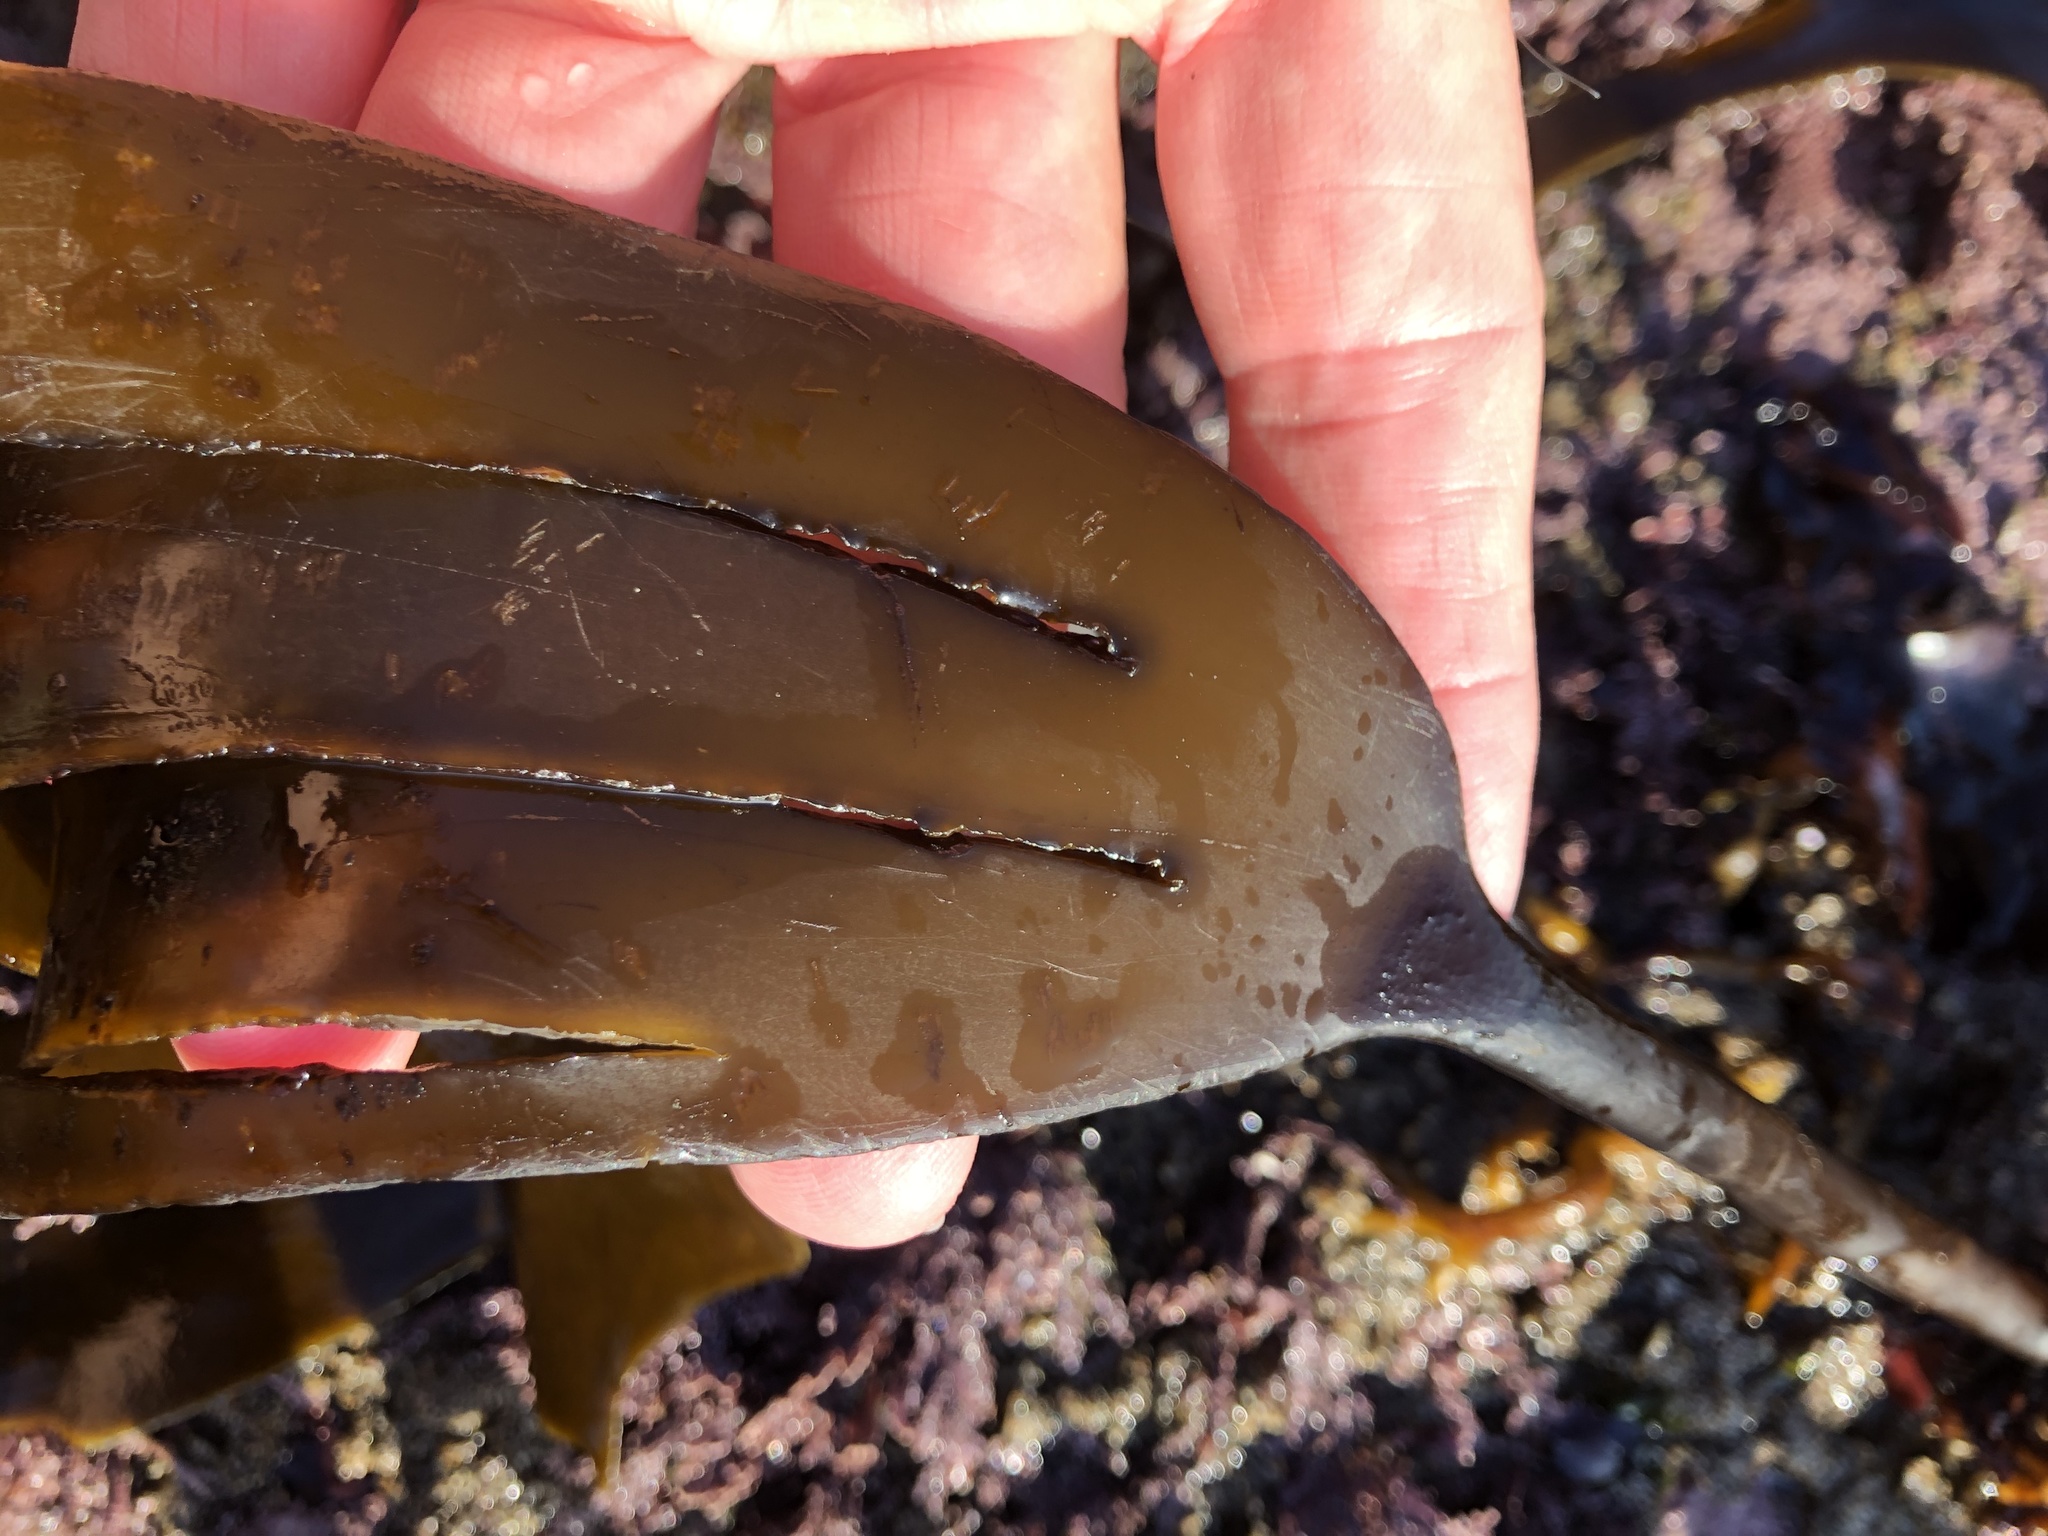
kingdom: Chromista
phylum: Ochrophyta
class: Phaeophyceae
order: Laminariales
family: Laminariaceae
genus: Laminaria
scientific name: Laminaria setchellii
